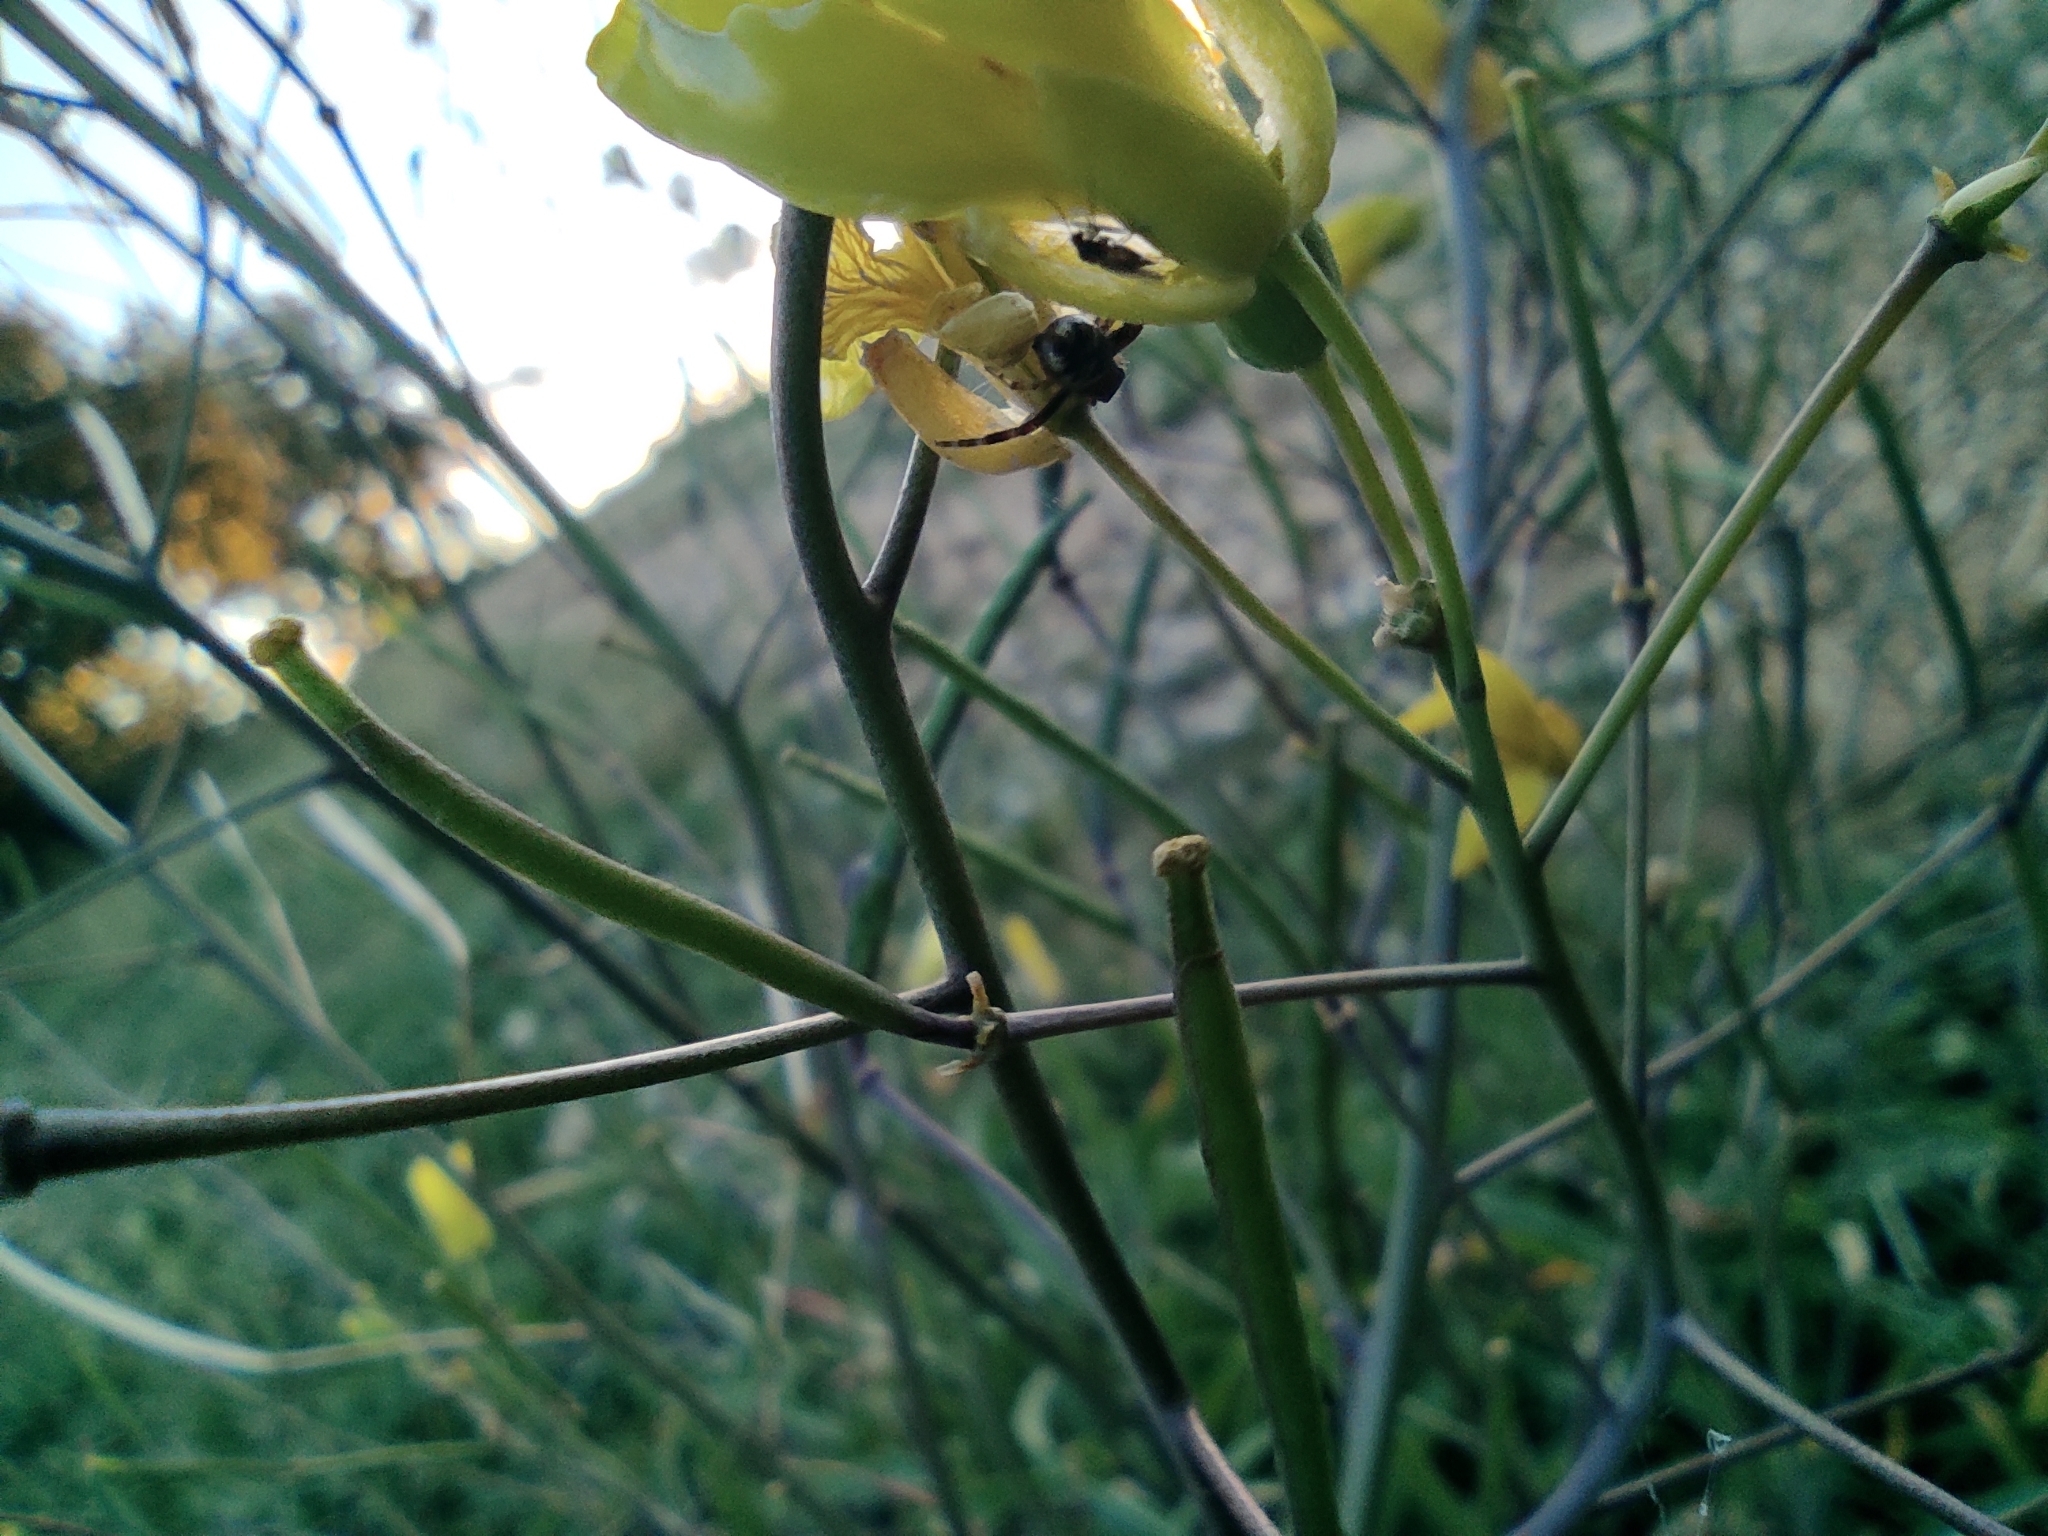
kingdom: Animalia
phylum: Arthropoda
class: Arachnida
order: Araneae
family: Thomisidae
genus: Synema
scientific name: Synema globosum
